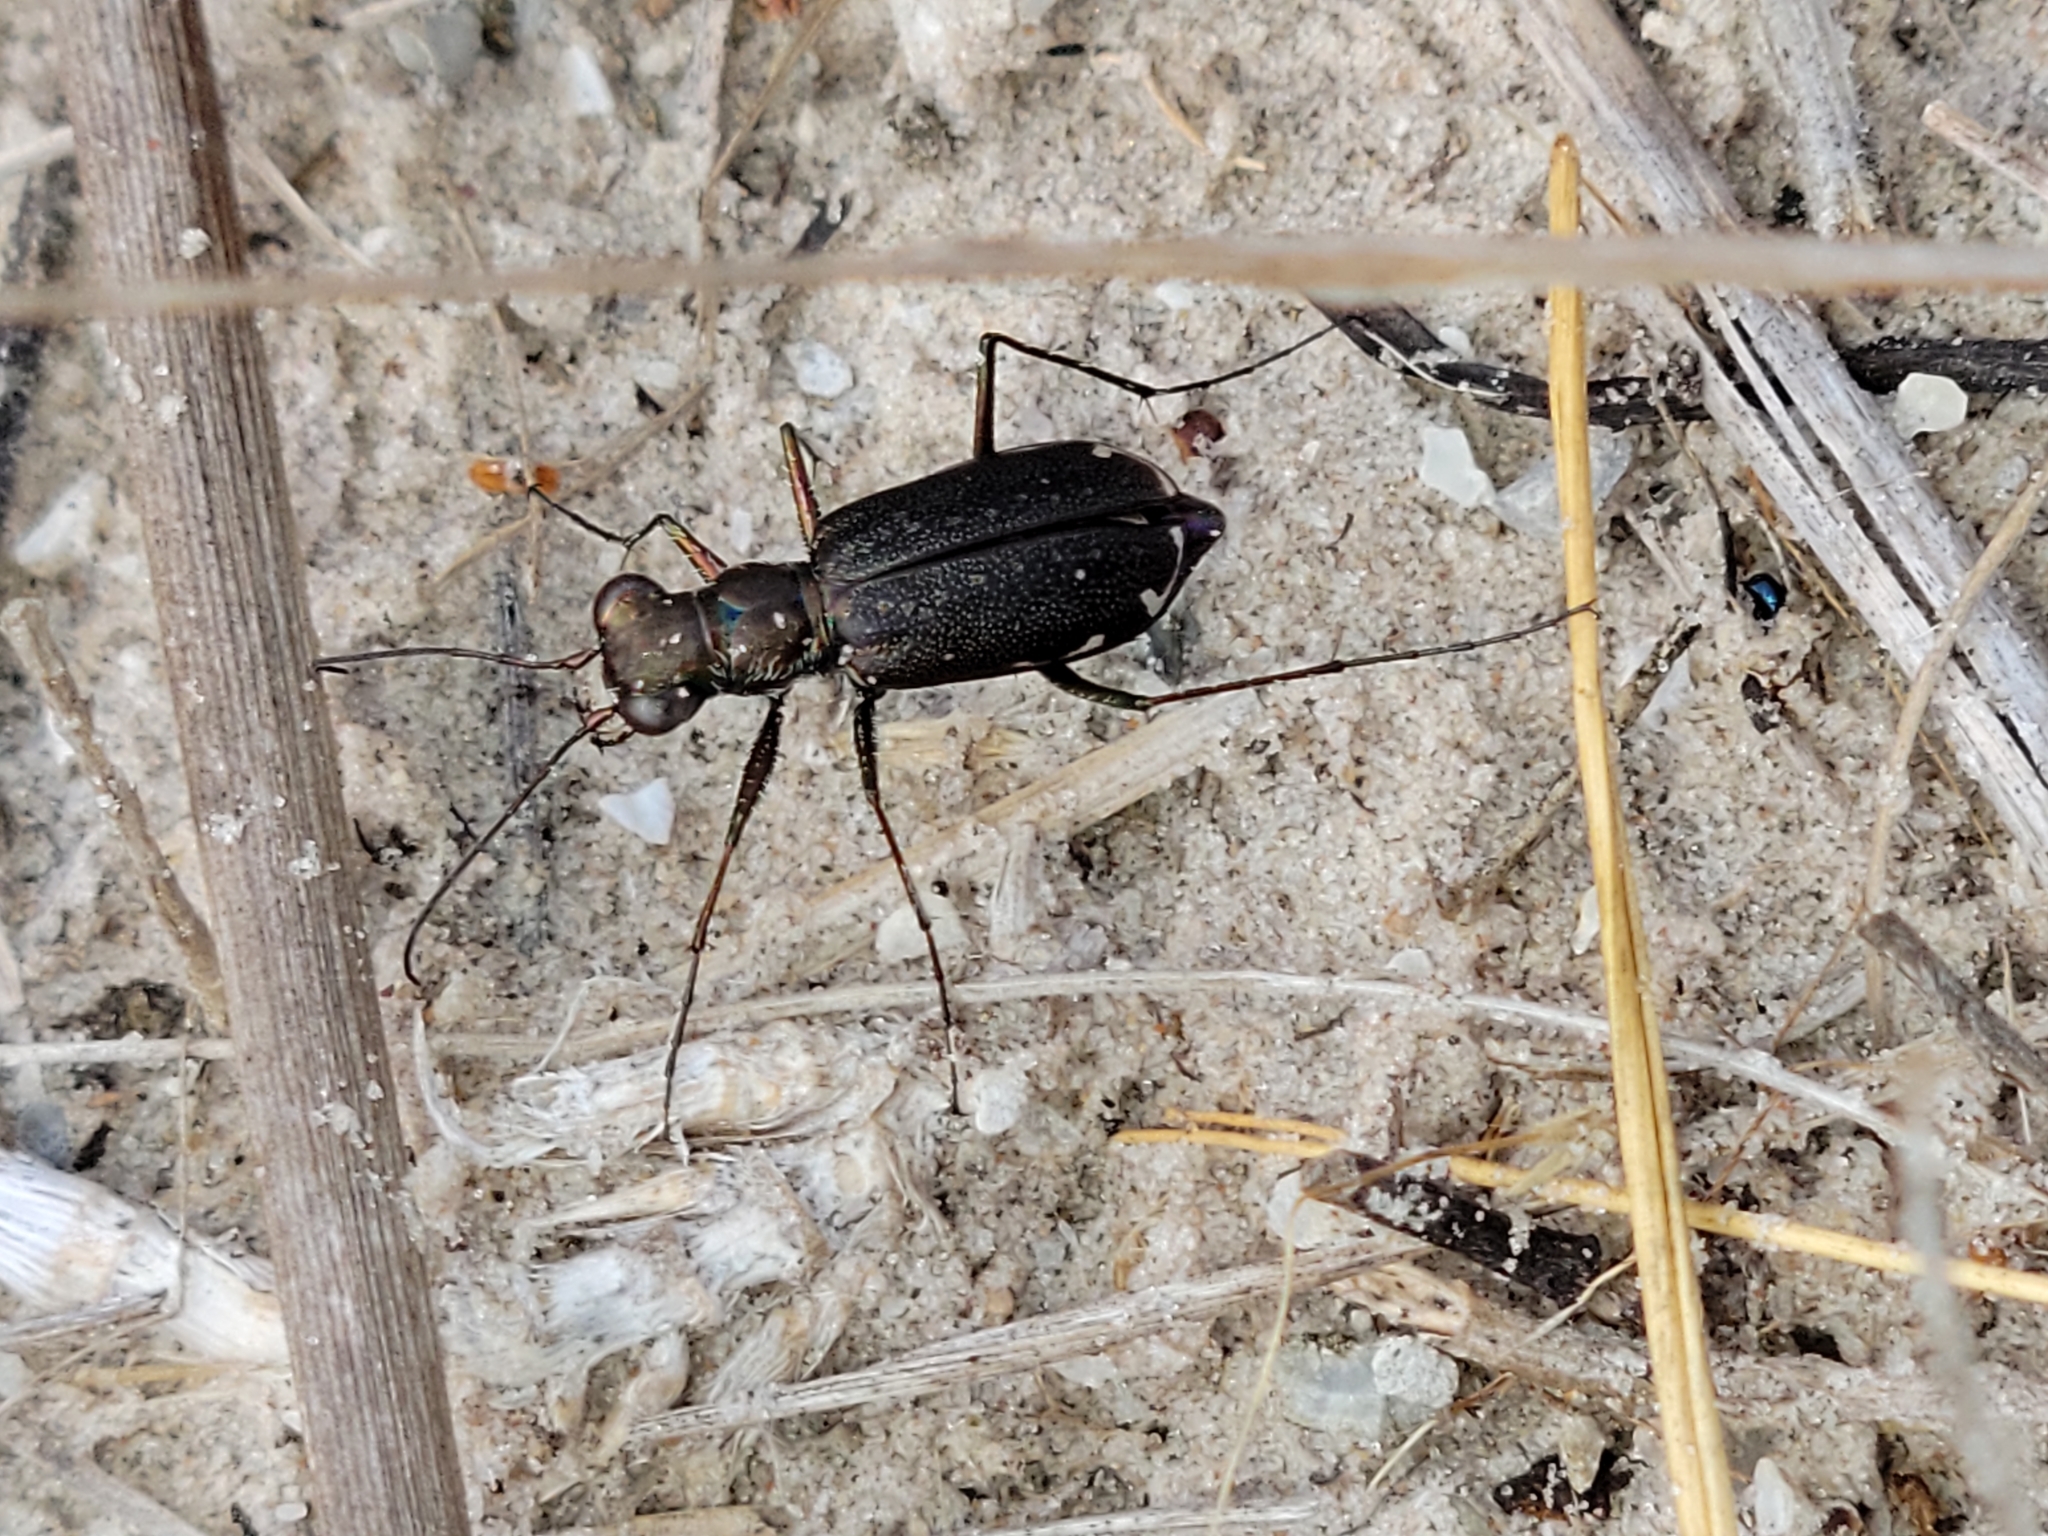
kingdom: Animalia
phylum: Arthropoda
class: Insecta
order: Coleoptera
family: Carabidae
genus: Cicindela
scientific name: Cicindela punctulata
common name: Punctured tiger beetle
